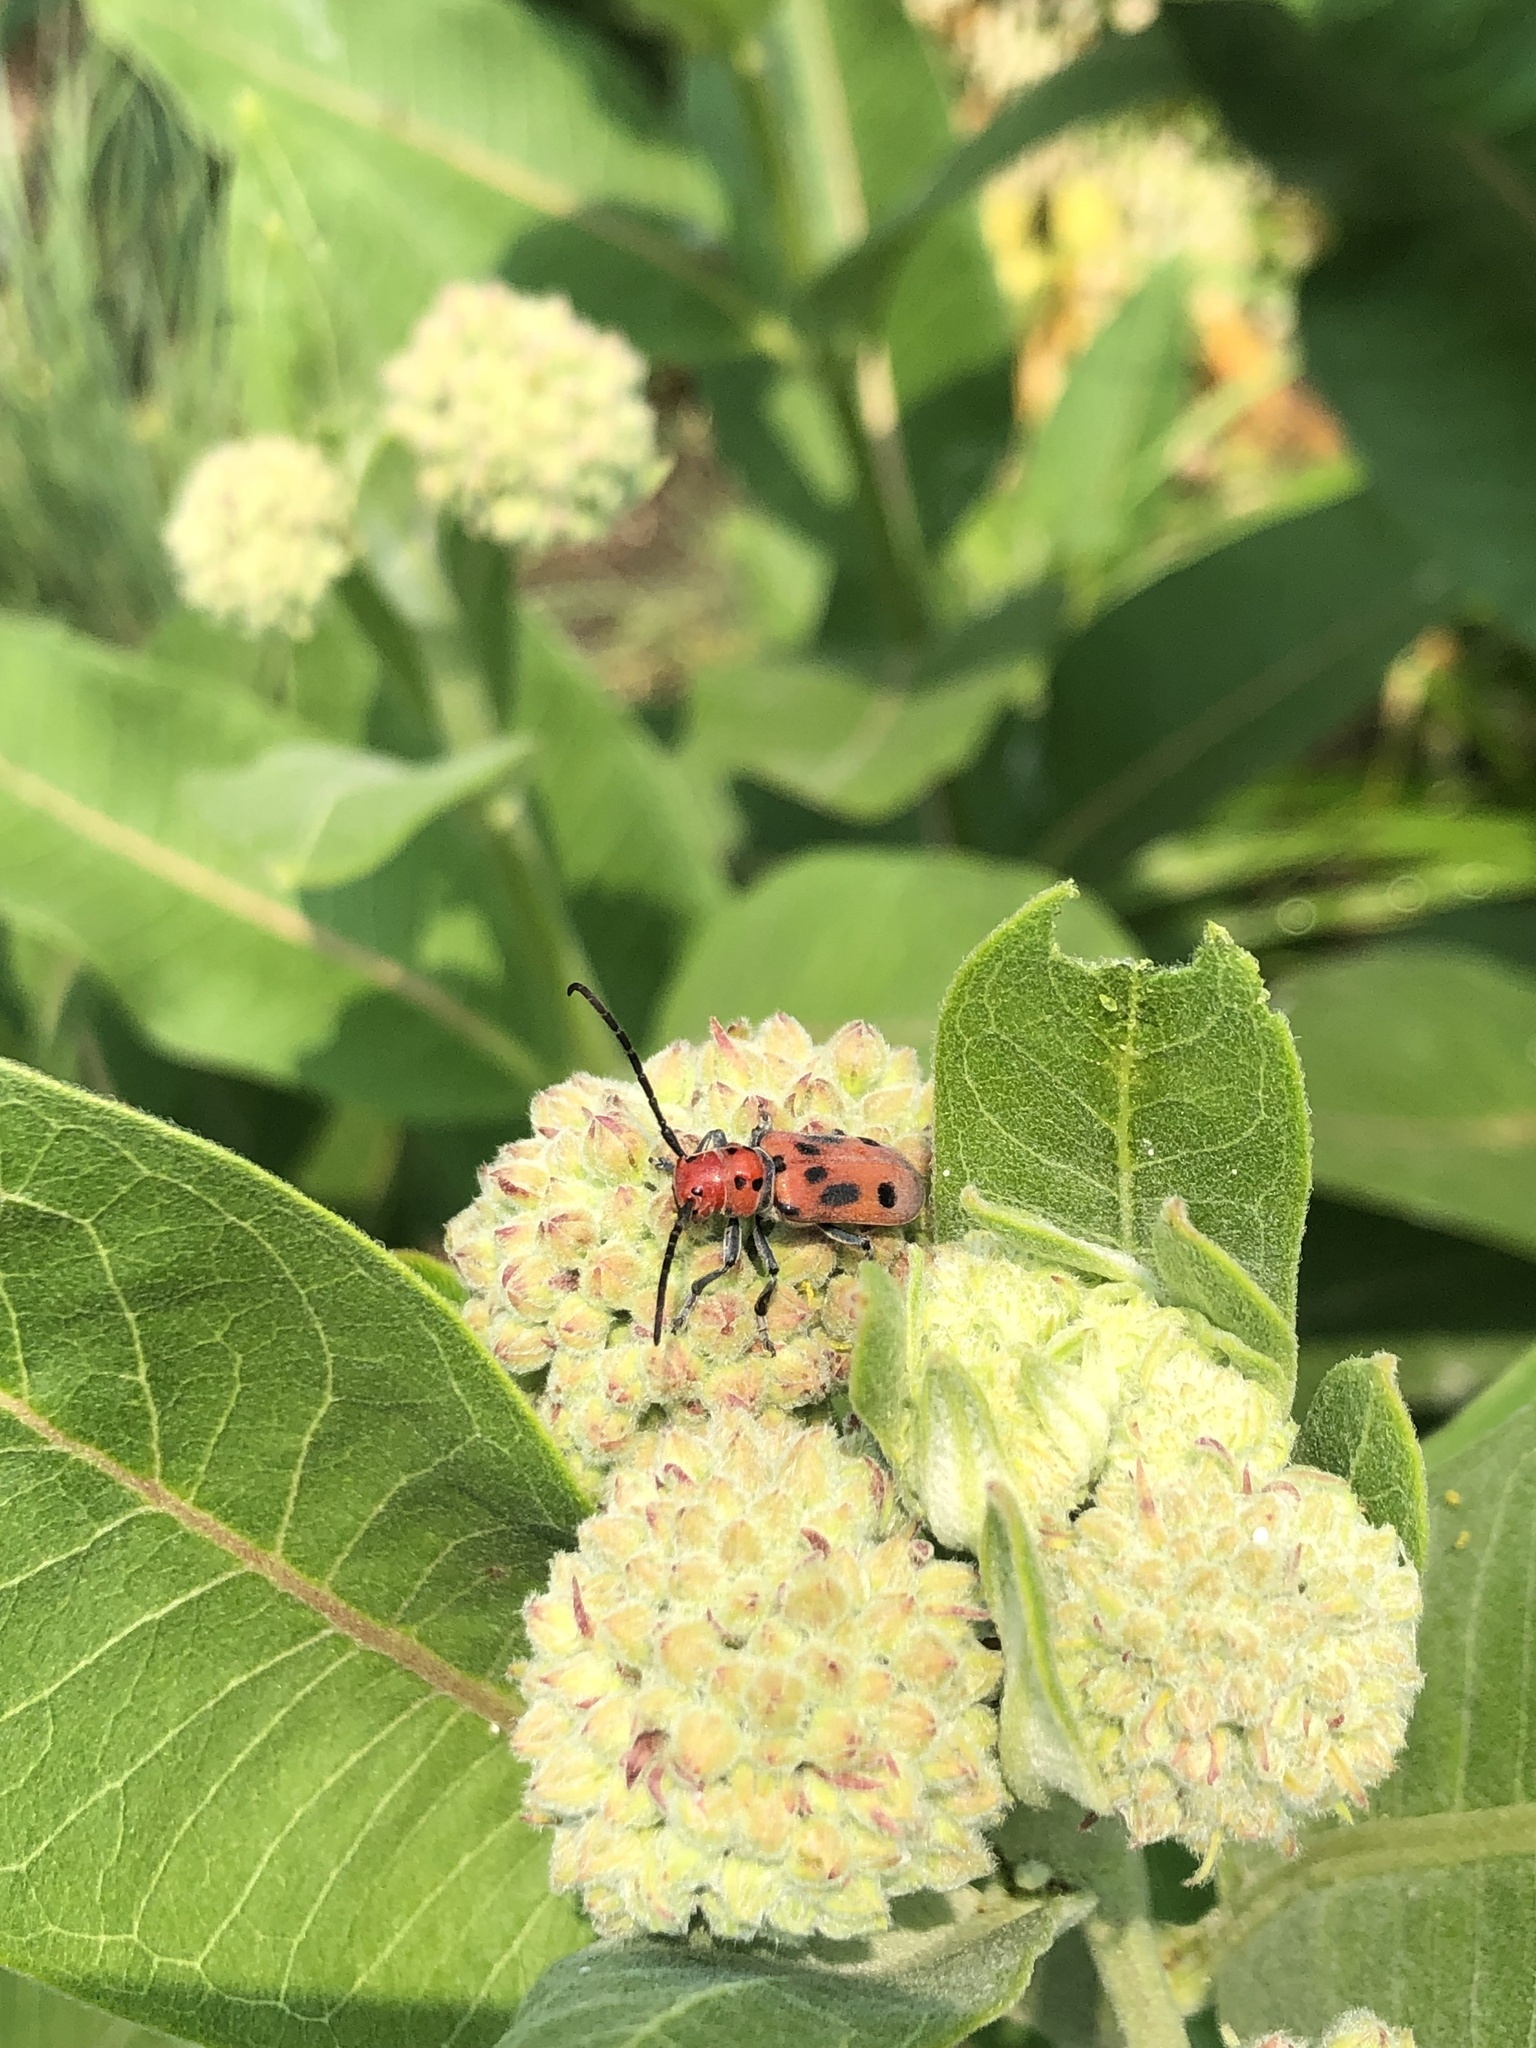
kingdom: Animalia
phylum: Arthropoda
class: Insecta
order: Coleoptera
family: Cerambycidae
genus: Tetraopes
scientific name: Tetraopes tetrophthalmus
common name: Red milkweed beetle
